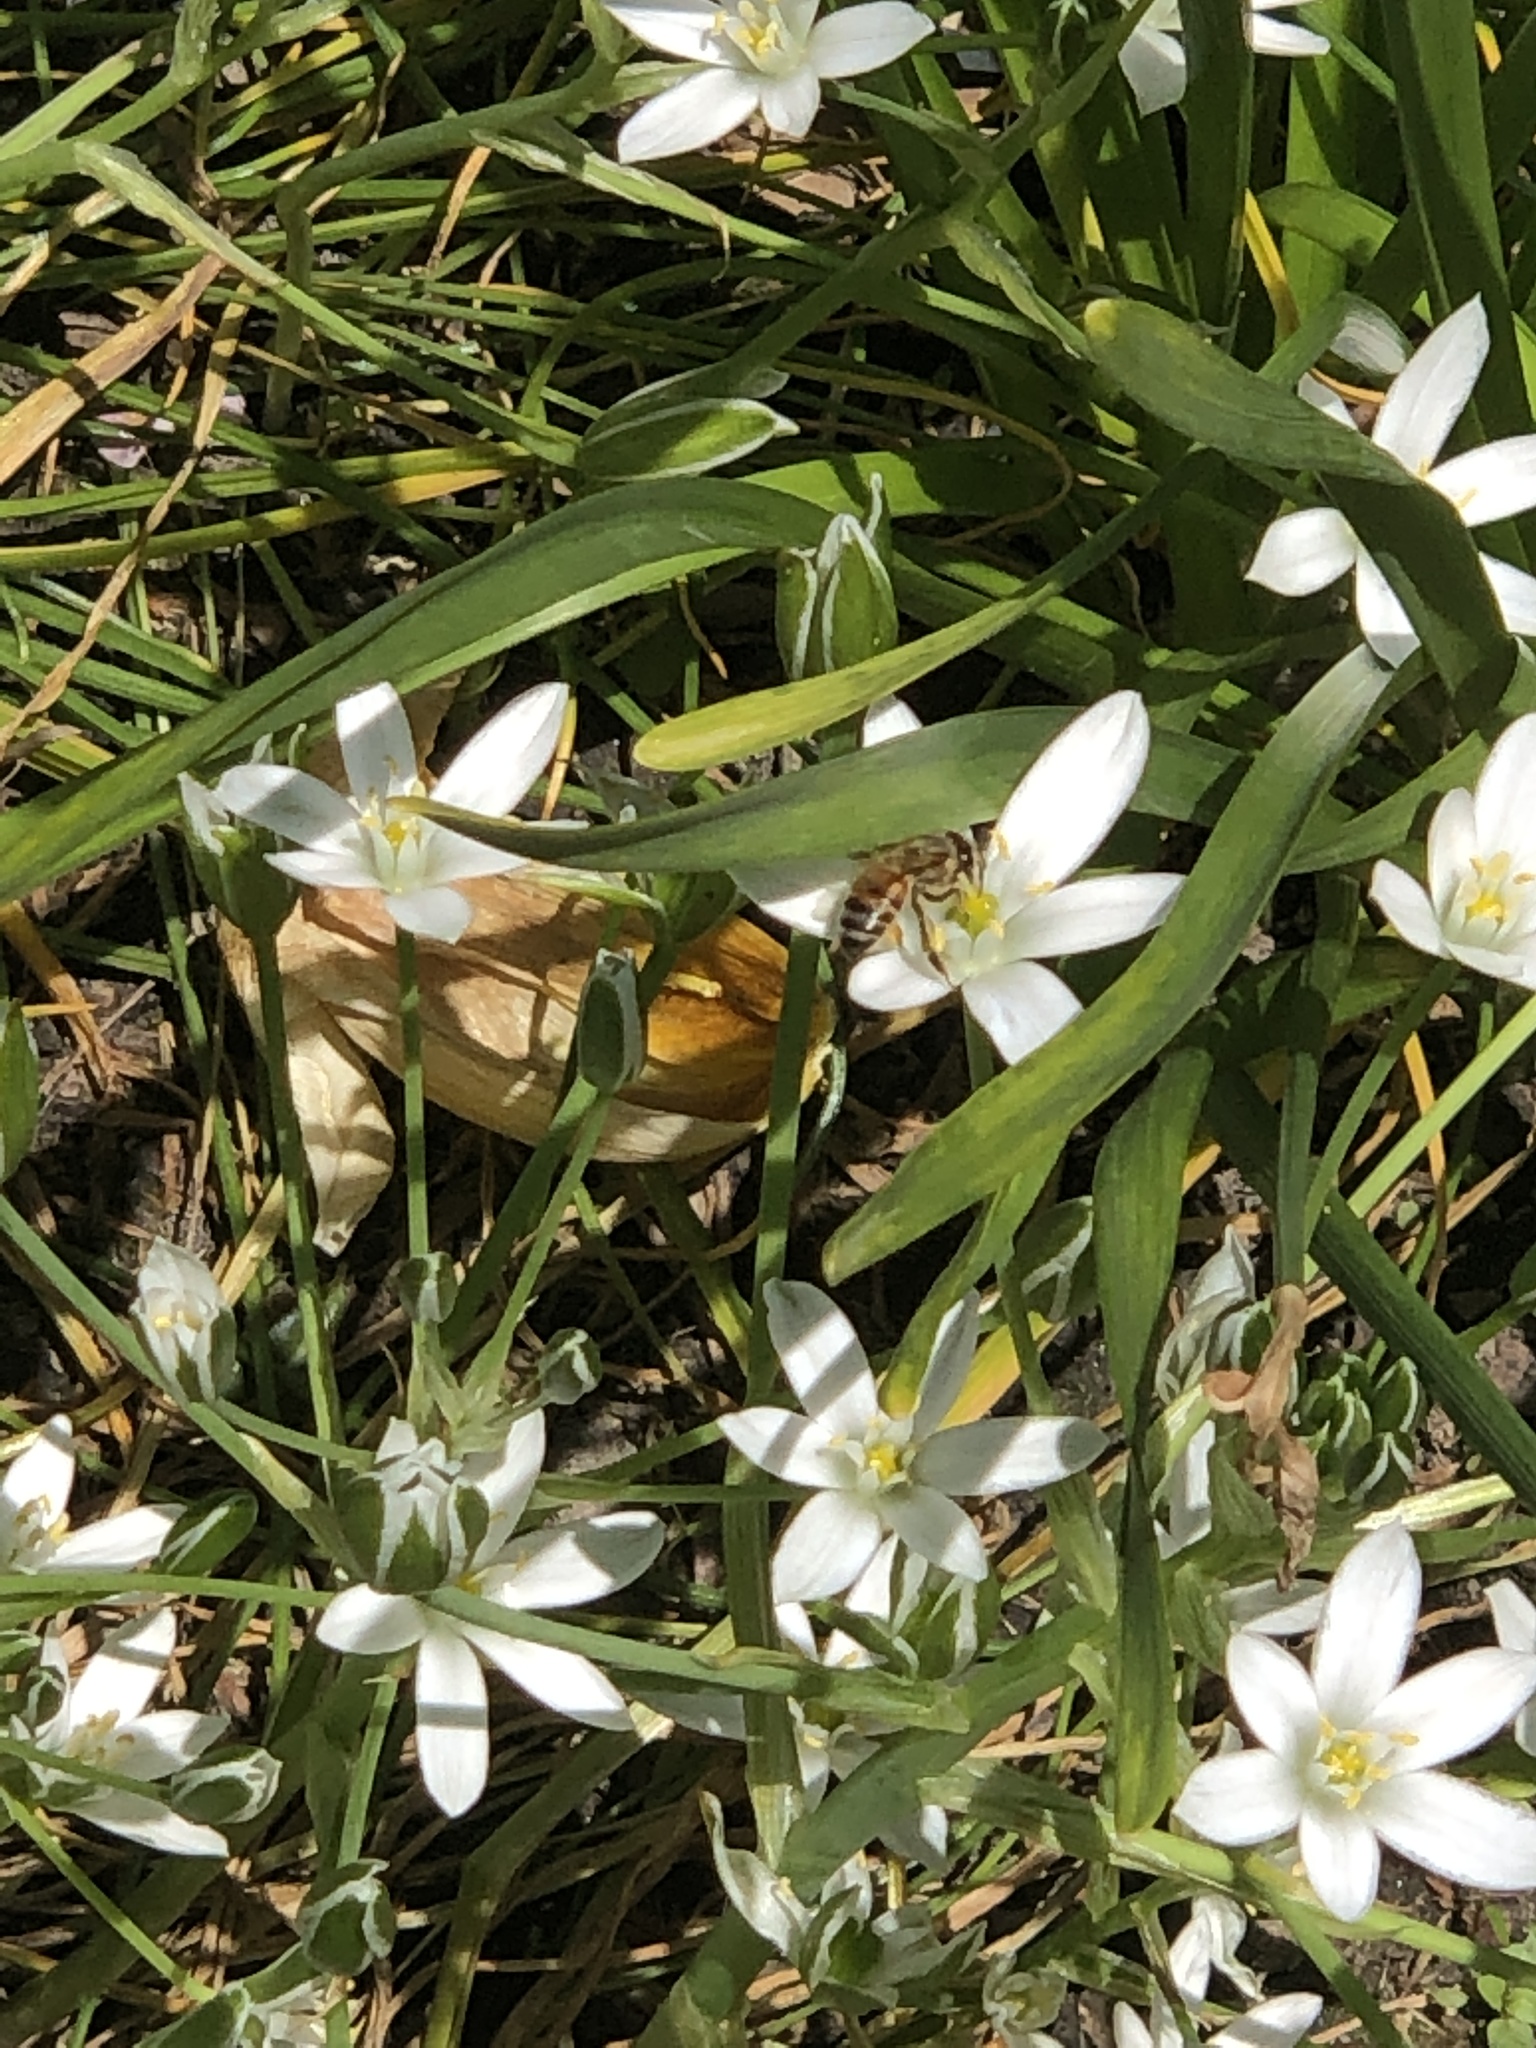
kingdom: Animalia
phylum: Arthropoda
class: Insecta
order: Hymenoptera
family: Apidae
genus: Apis
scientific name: Apis mellifera
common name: Honey bee
